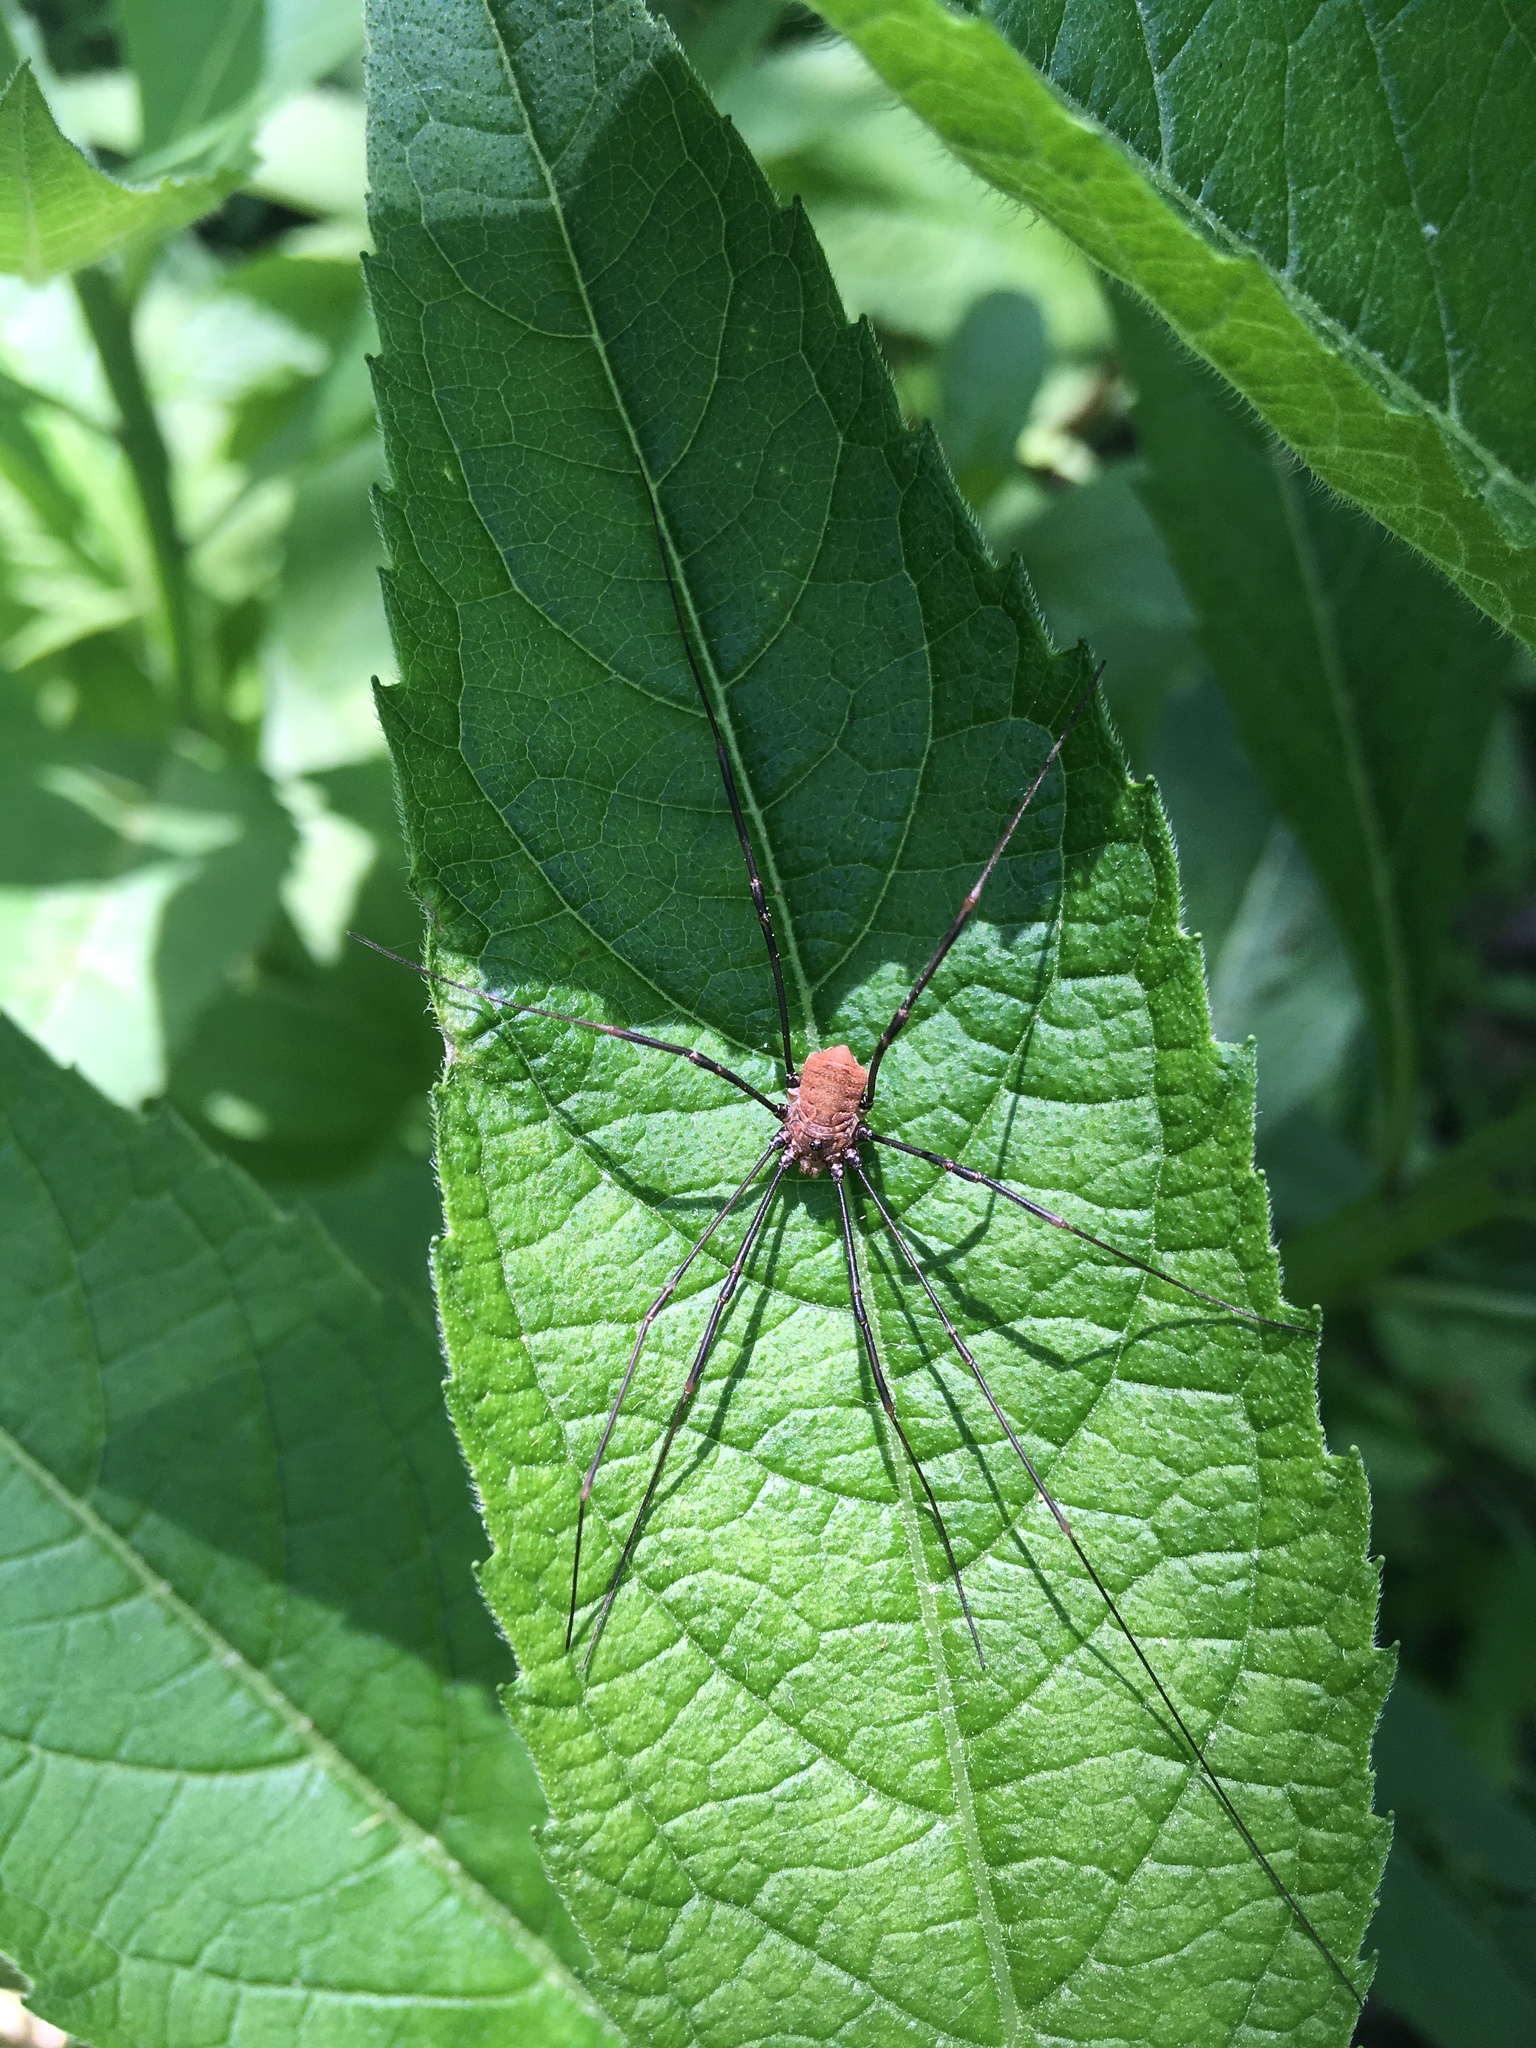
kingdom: Animalia
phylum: Arthropoda
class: Arachnida
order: Opiliones
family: Sclerosomatidae
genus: Leiobunum
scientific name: Leiobunum verrucosum
